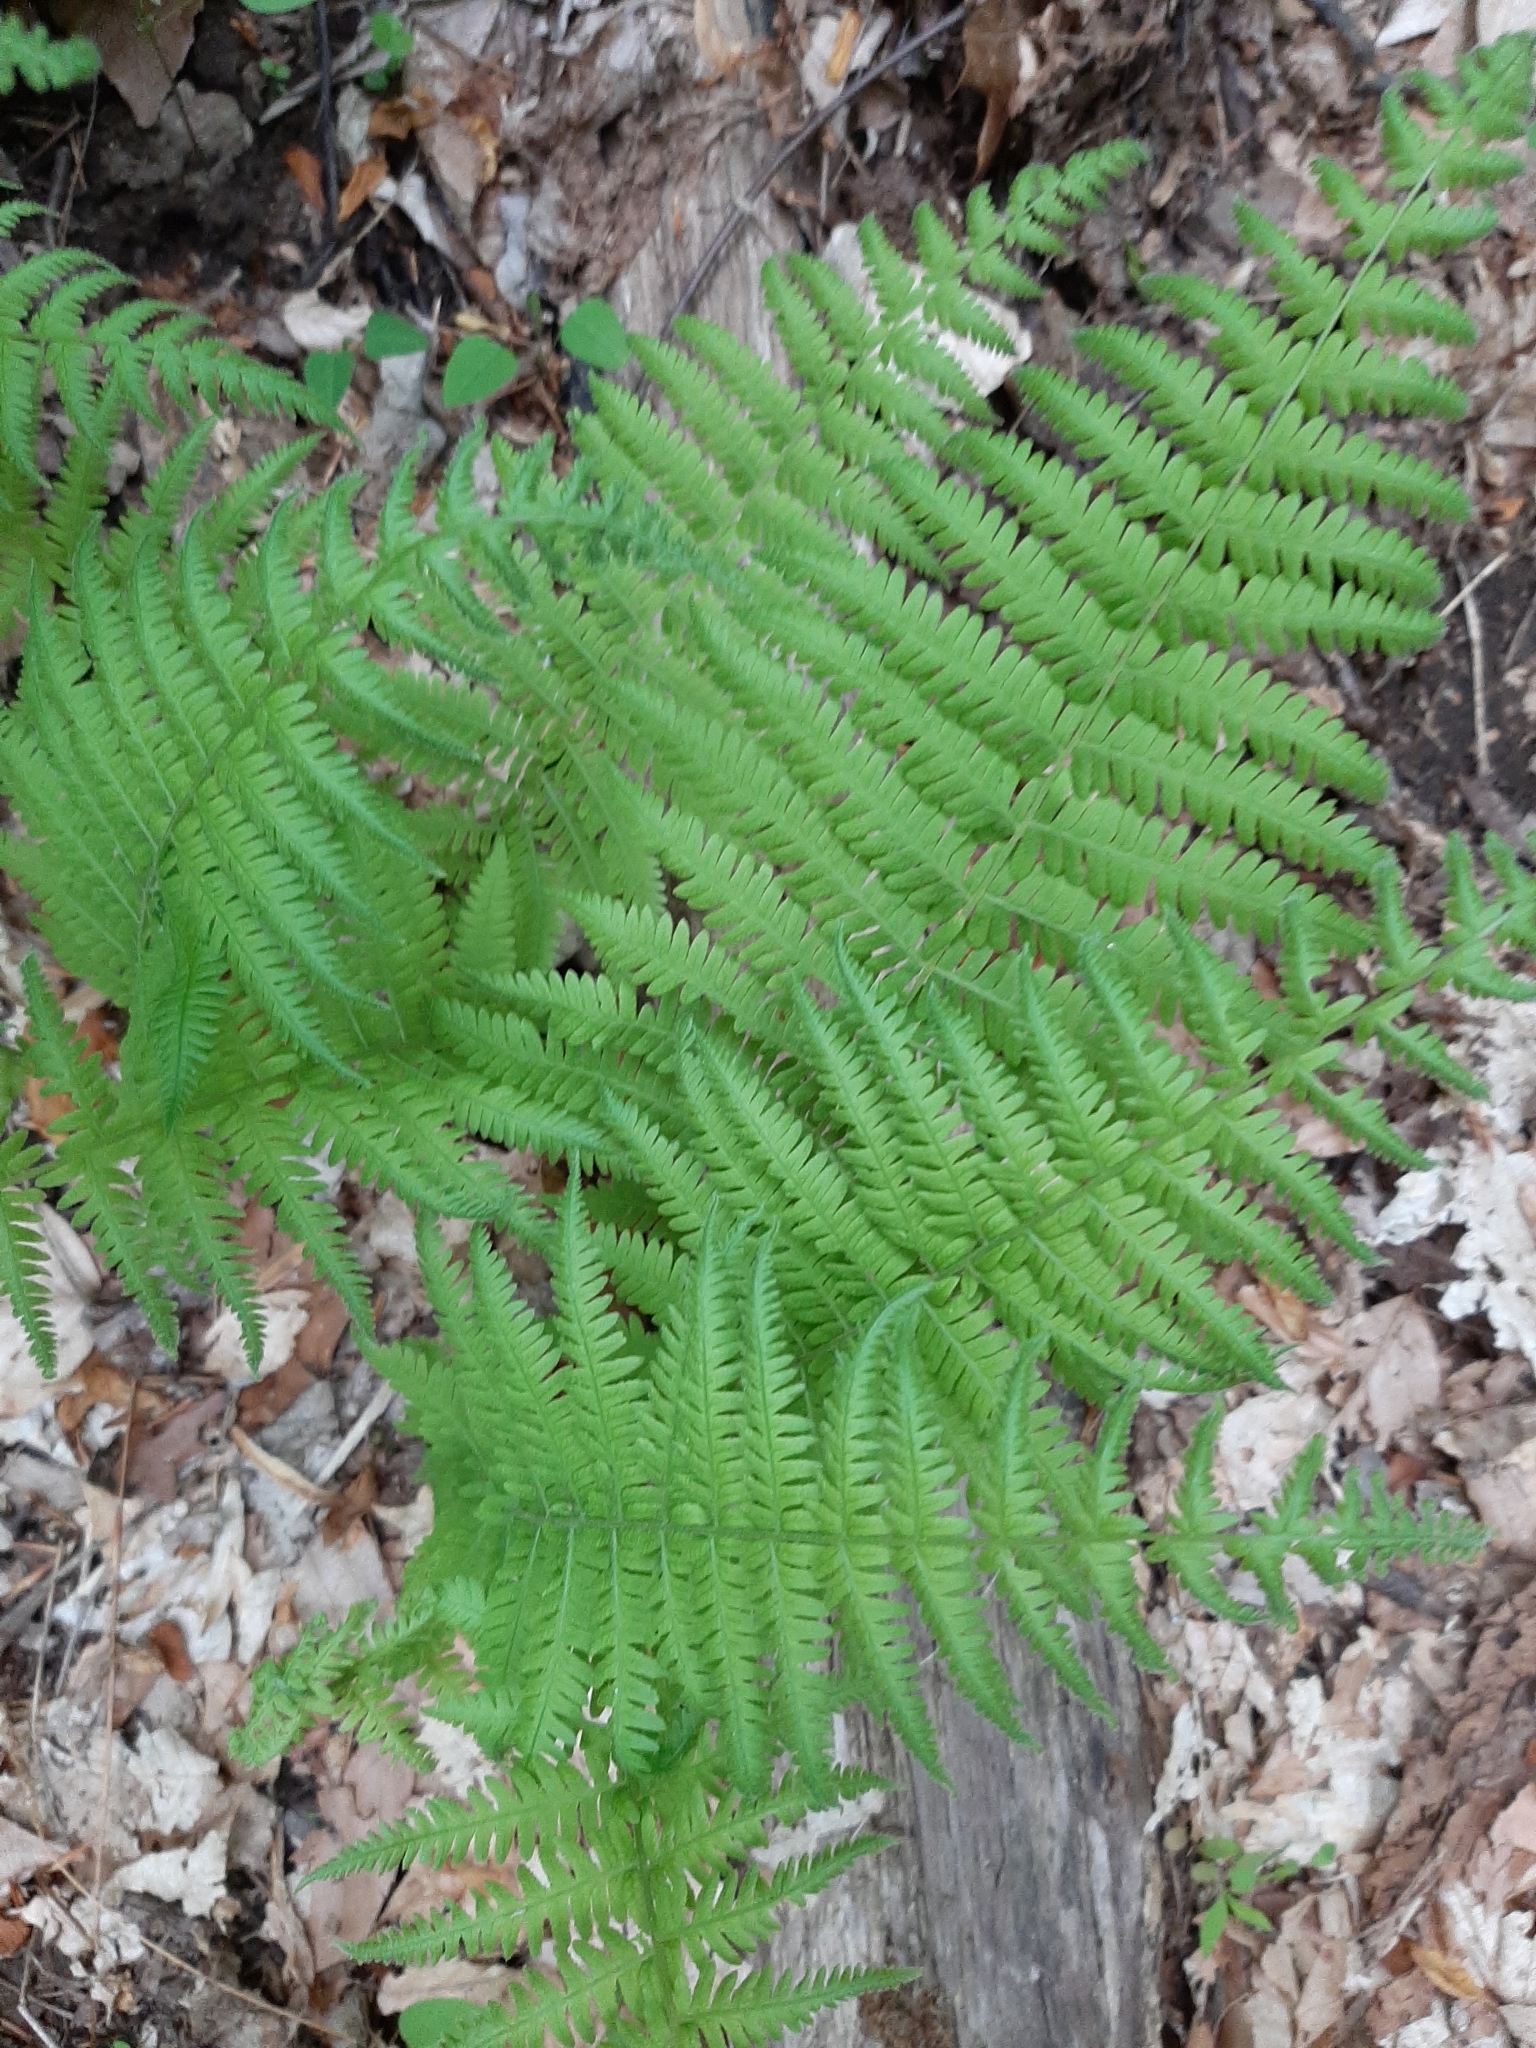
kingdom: Plantae
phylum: Tracheophyta
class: Polypodiopsida
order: Polypodiales
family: Thelypteridaceae
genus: Amauropelta
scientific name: Amauropelta noveboracensis
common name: New york fern
